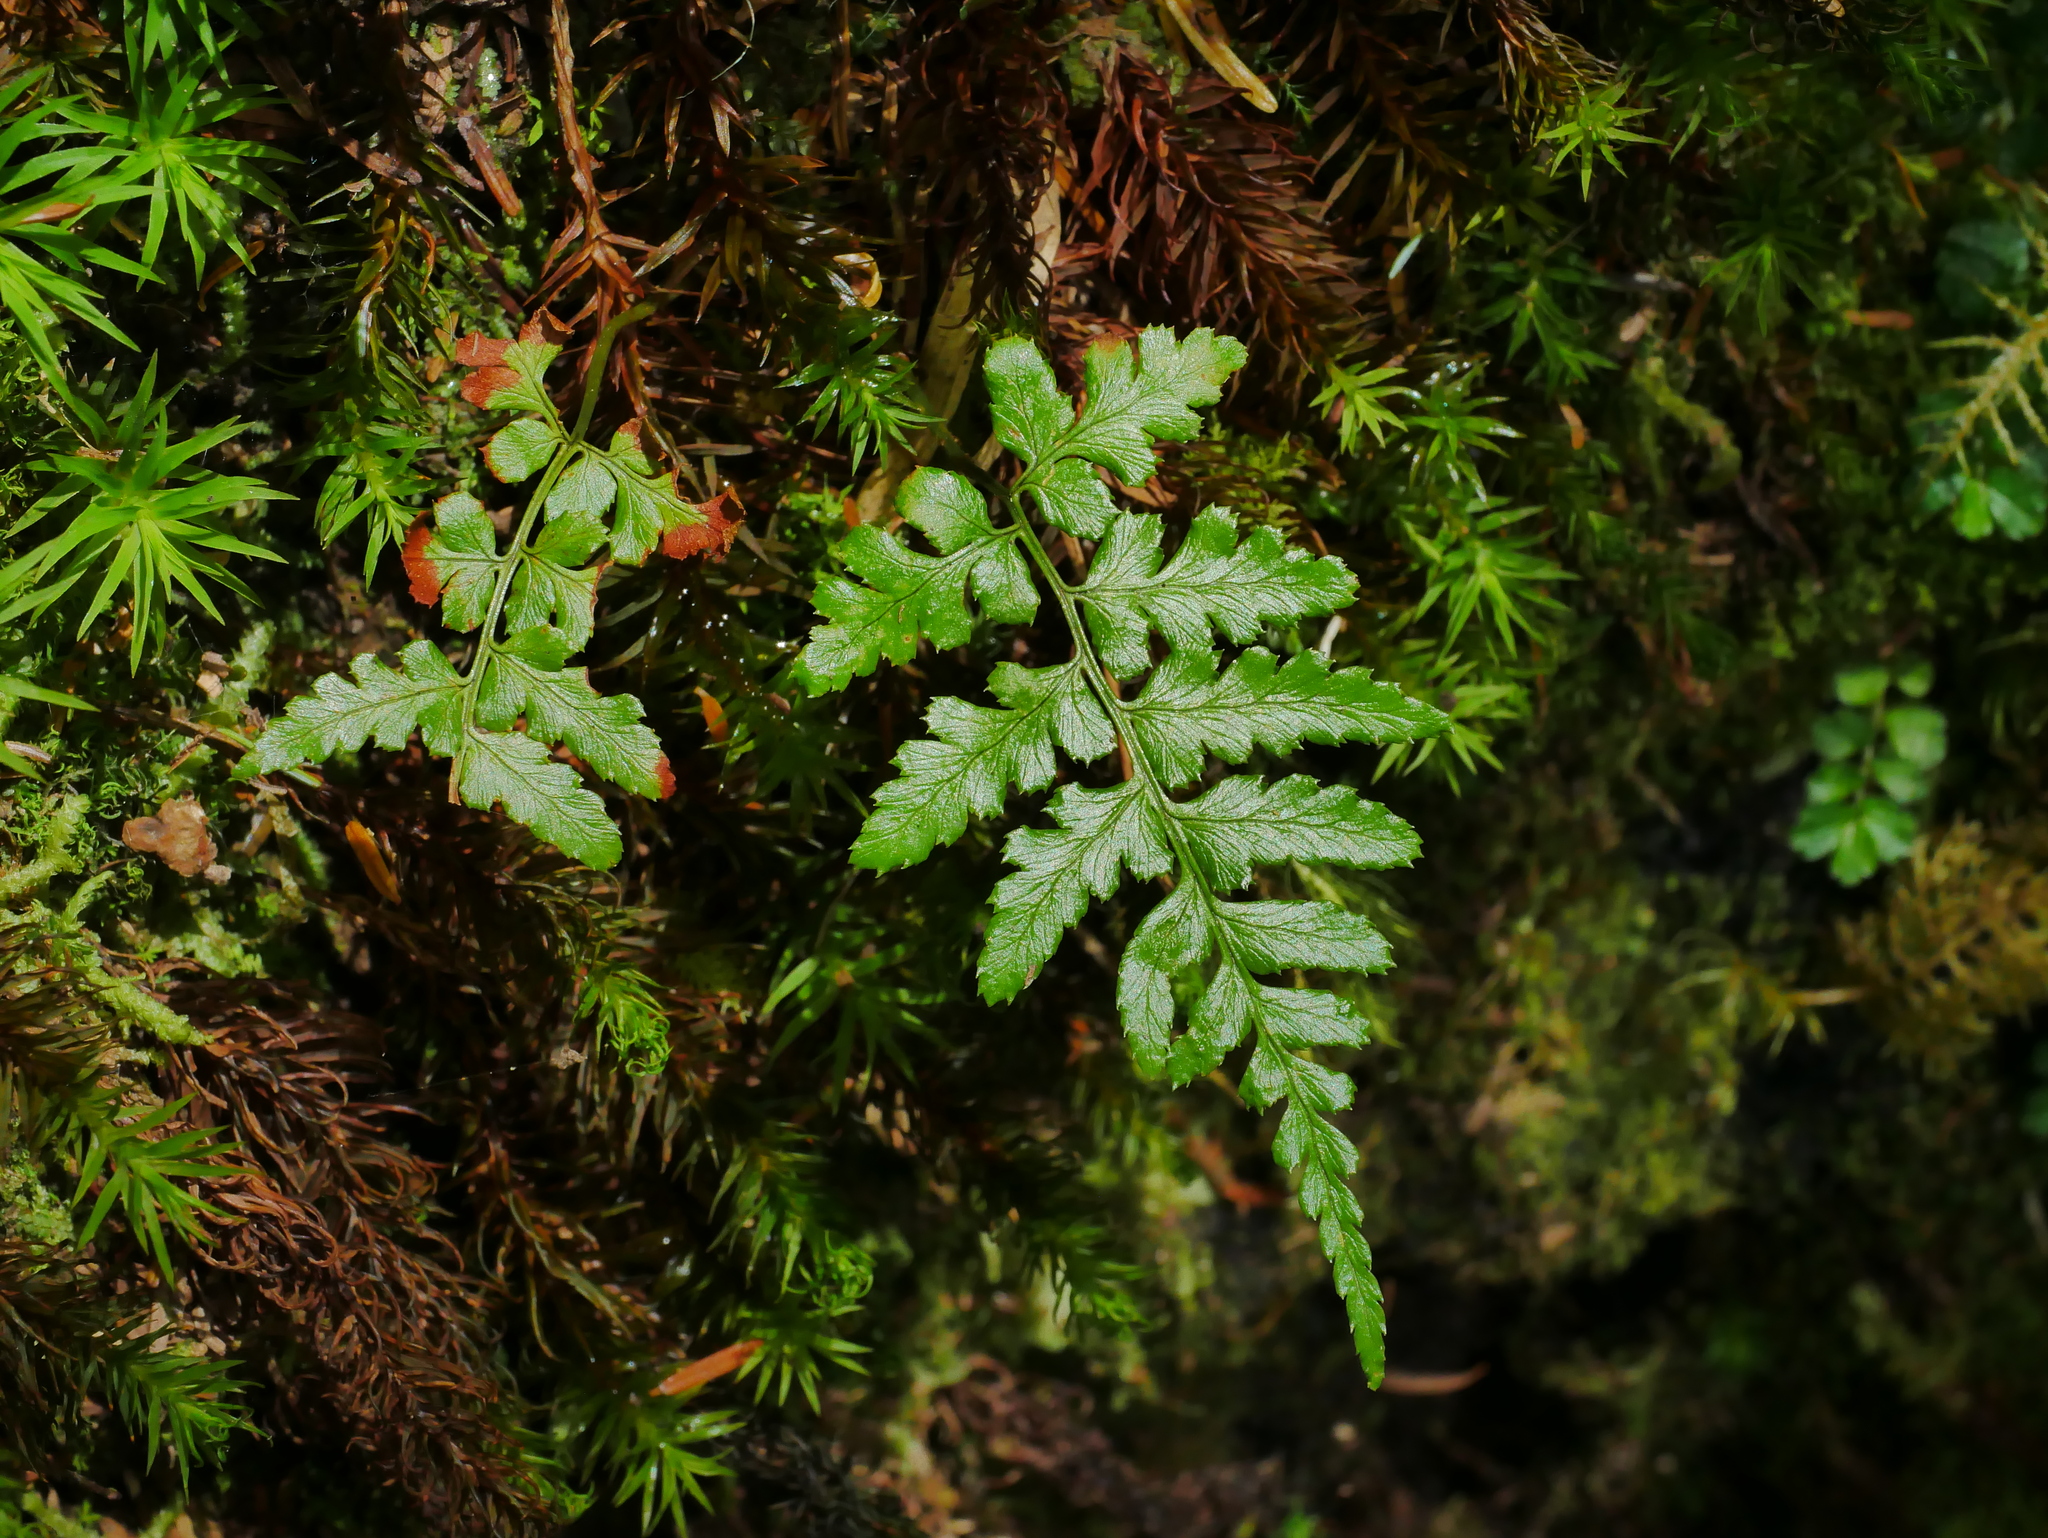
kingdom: Plantae
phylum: Tracheophyta
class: Polypodiopsida
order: Polypodiales
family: Dryopteridaceae
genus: Dryopteris
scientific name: Dryopteris reflexosquamata
